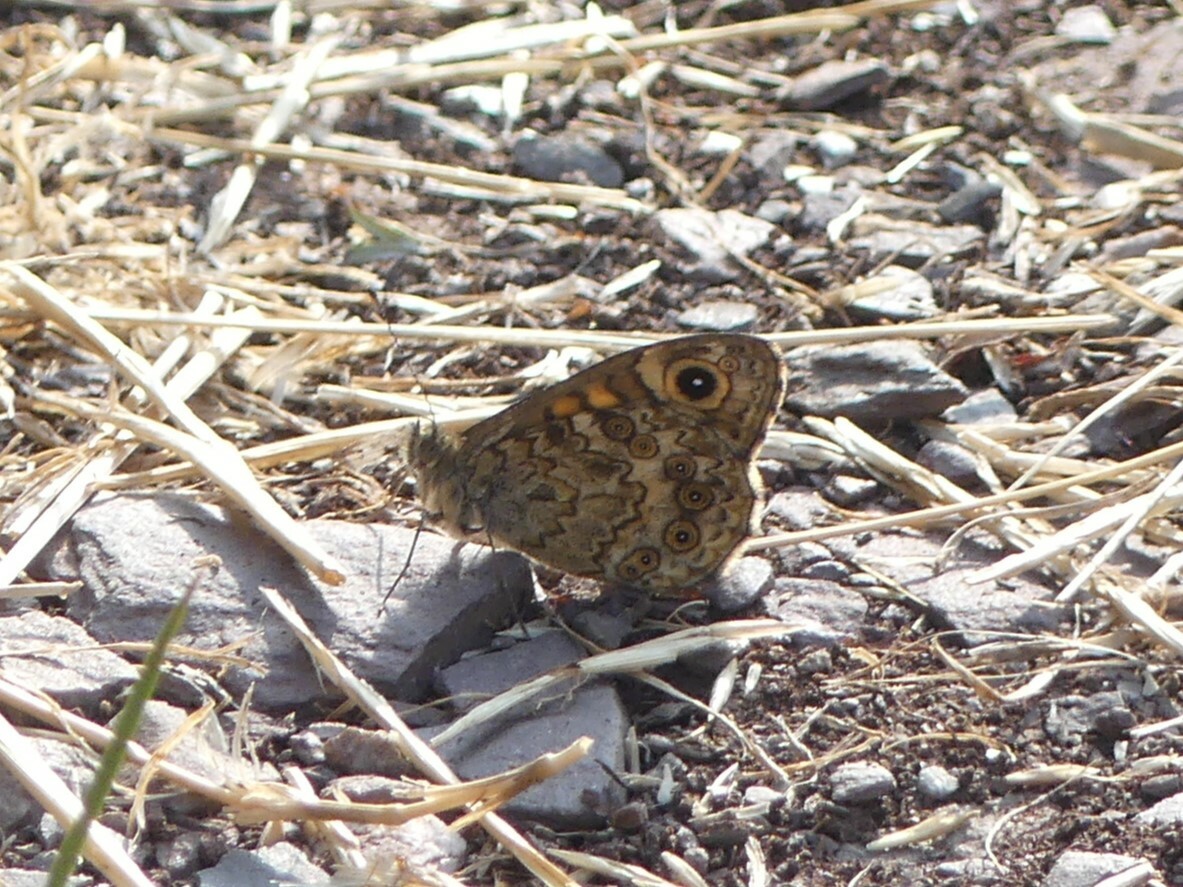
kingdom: Animalia
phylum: Arthropoda
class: Insecta
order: Lepidoptera
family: Nymphalidae
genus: Pararge
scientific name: Pararge Lasiommata megera
